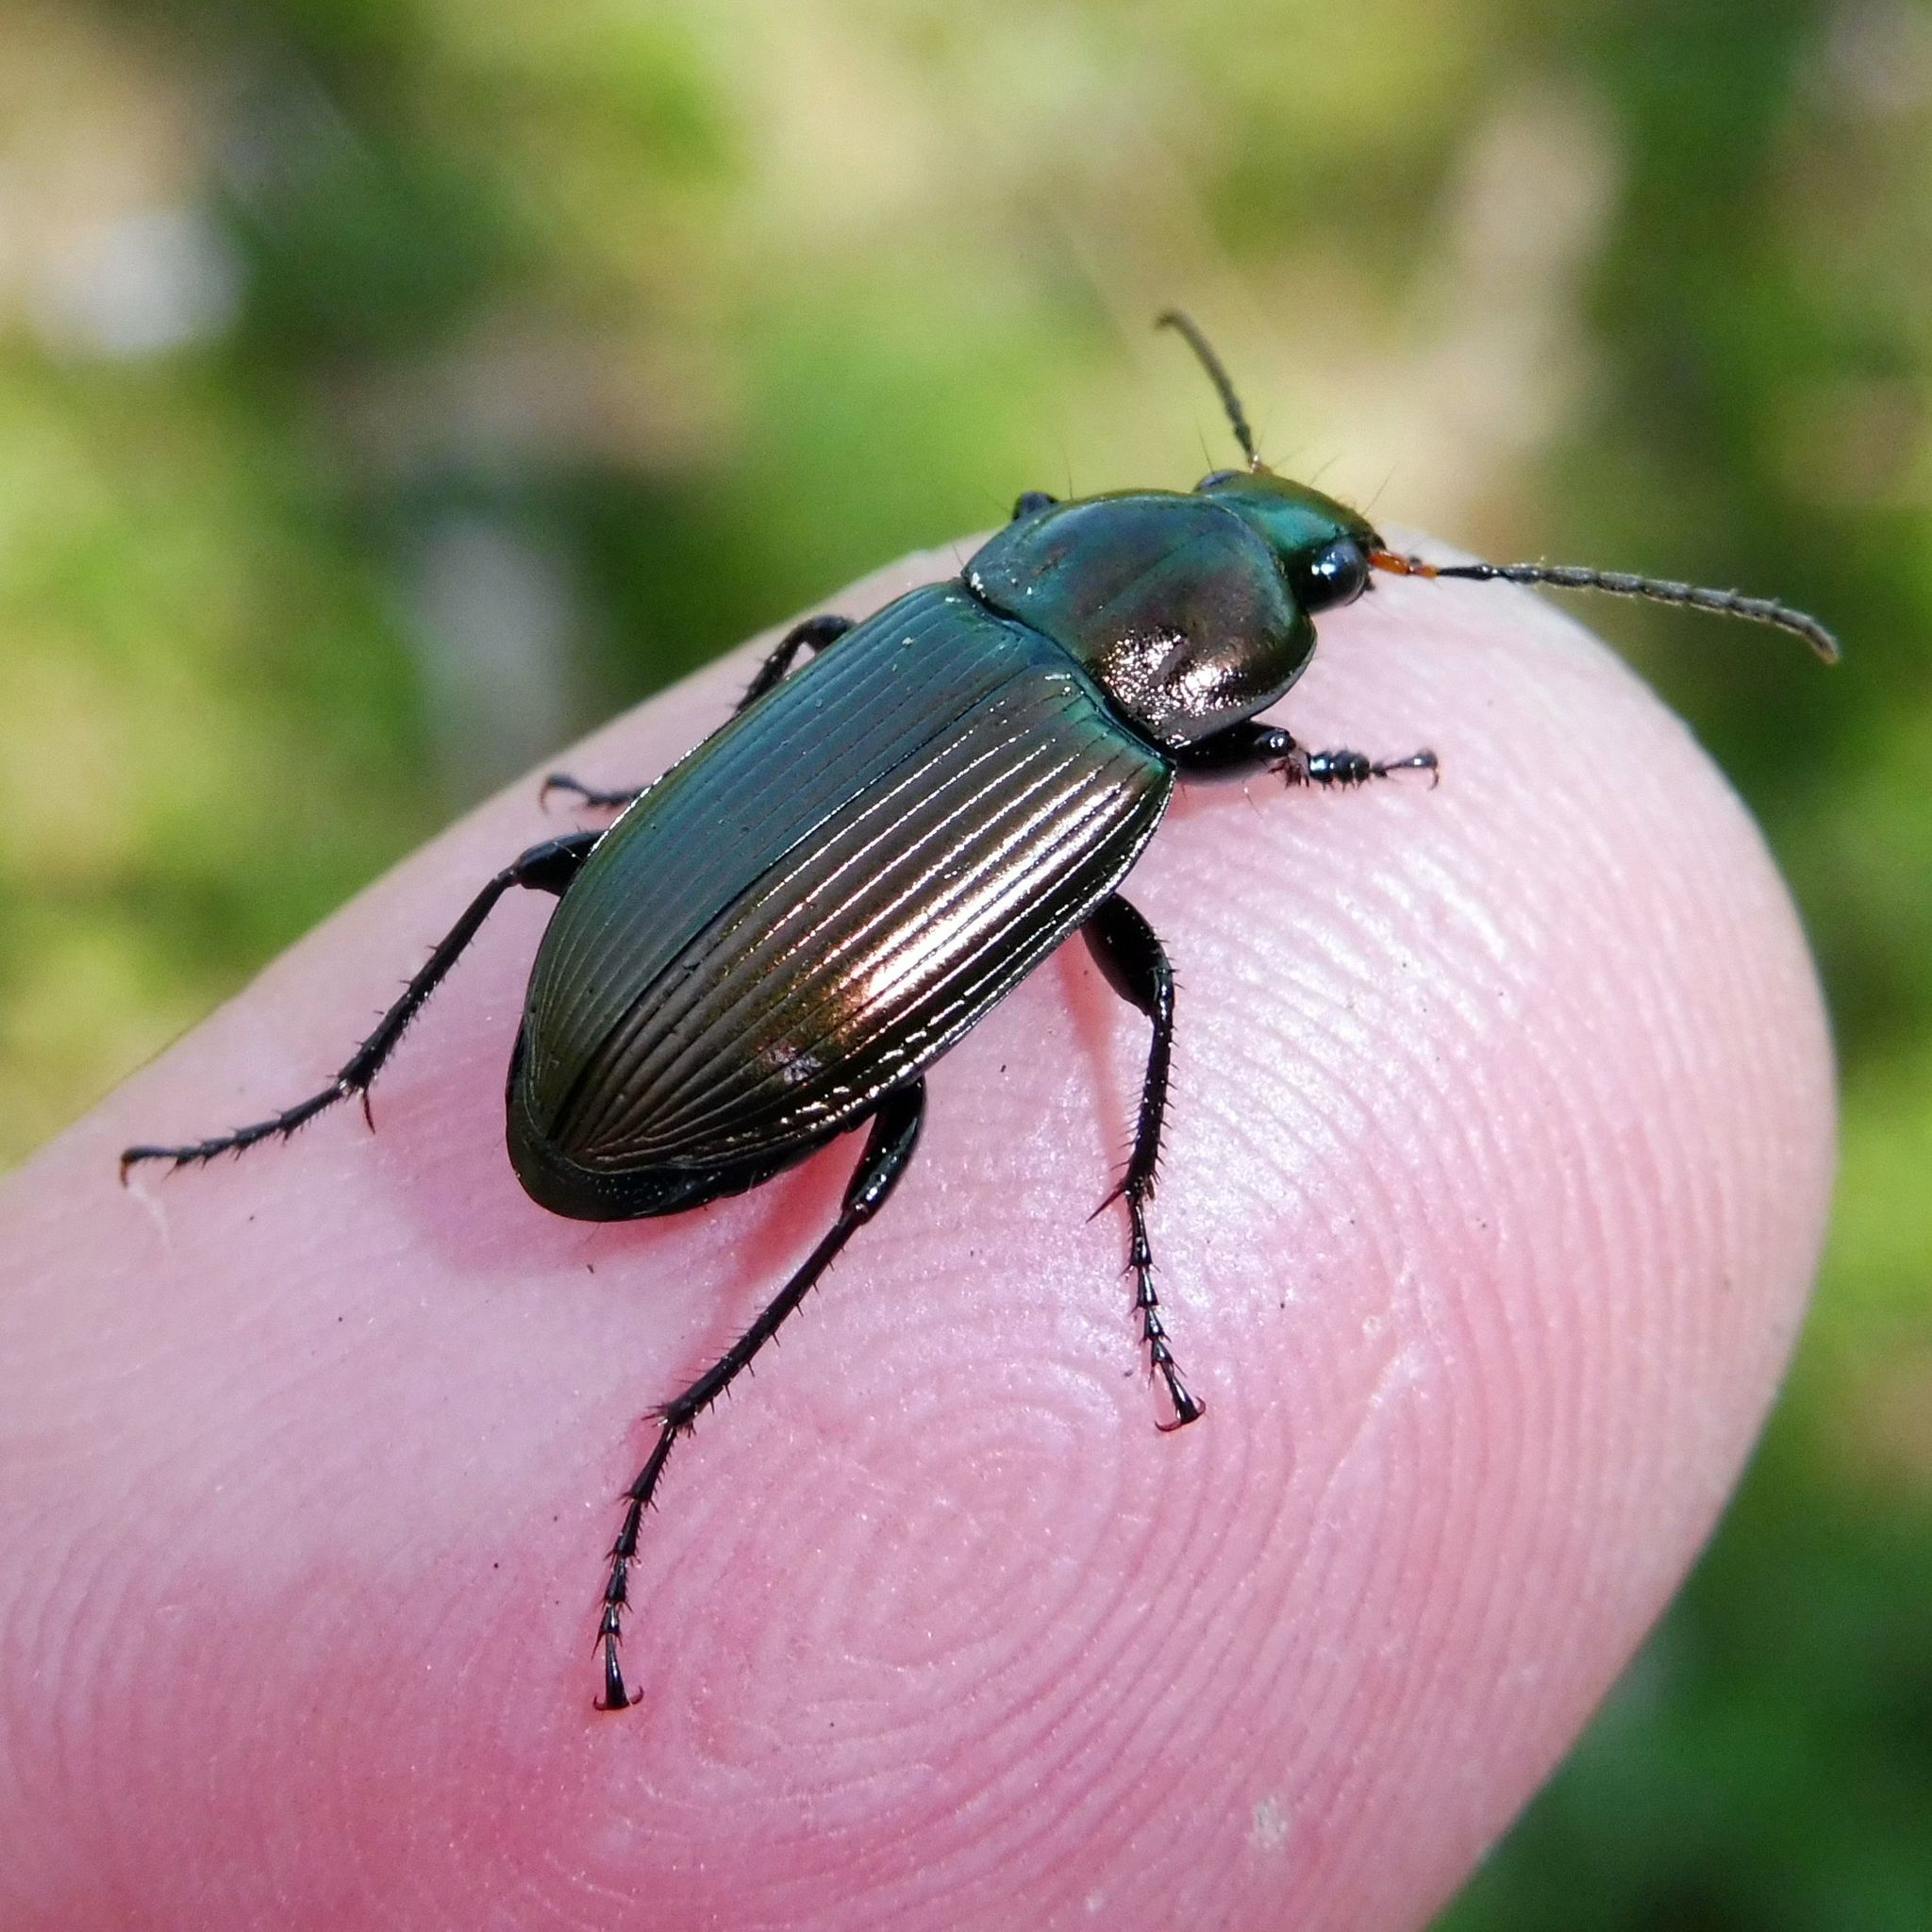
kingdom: Animalia
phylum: Arthropoda
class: Insecta
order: Coleoptera
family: Carabidae
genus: Poecilus
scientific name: Poecilus cupreus
